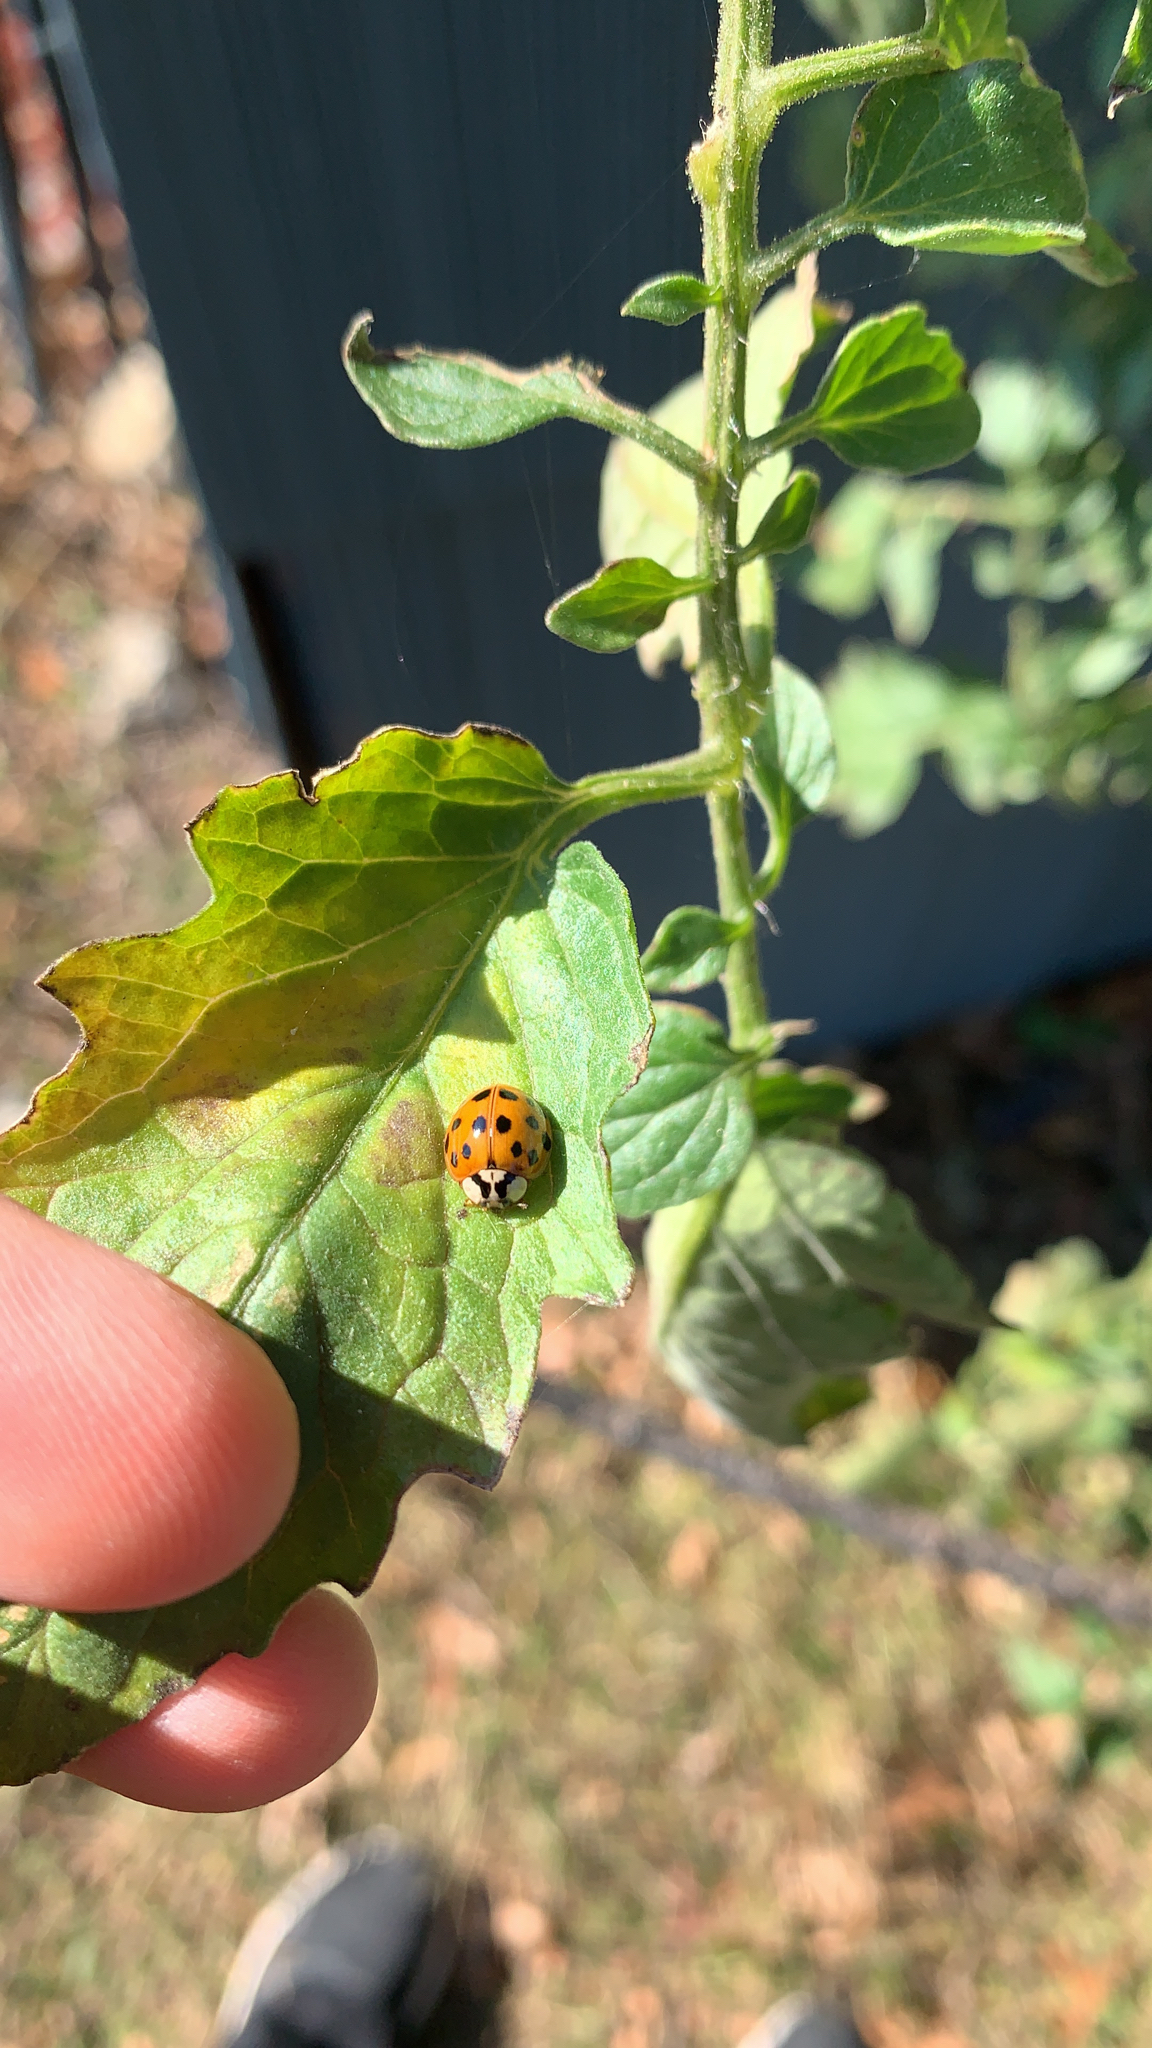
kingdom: Animalia
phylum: Arthropoda
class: Insecta
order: Coleoptera
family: Coccinellidae
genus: Harmonia
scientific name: Harmonia axyridis
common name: Harlequin ladybird
